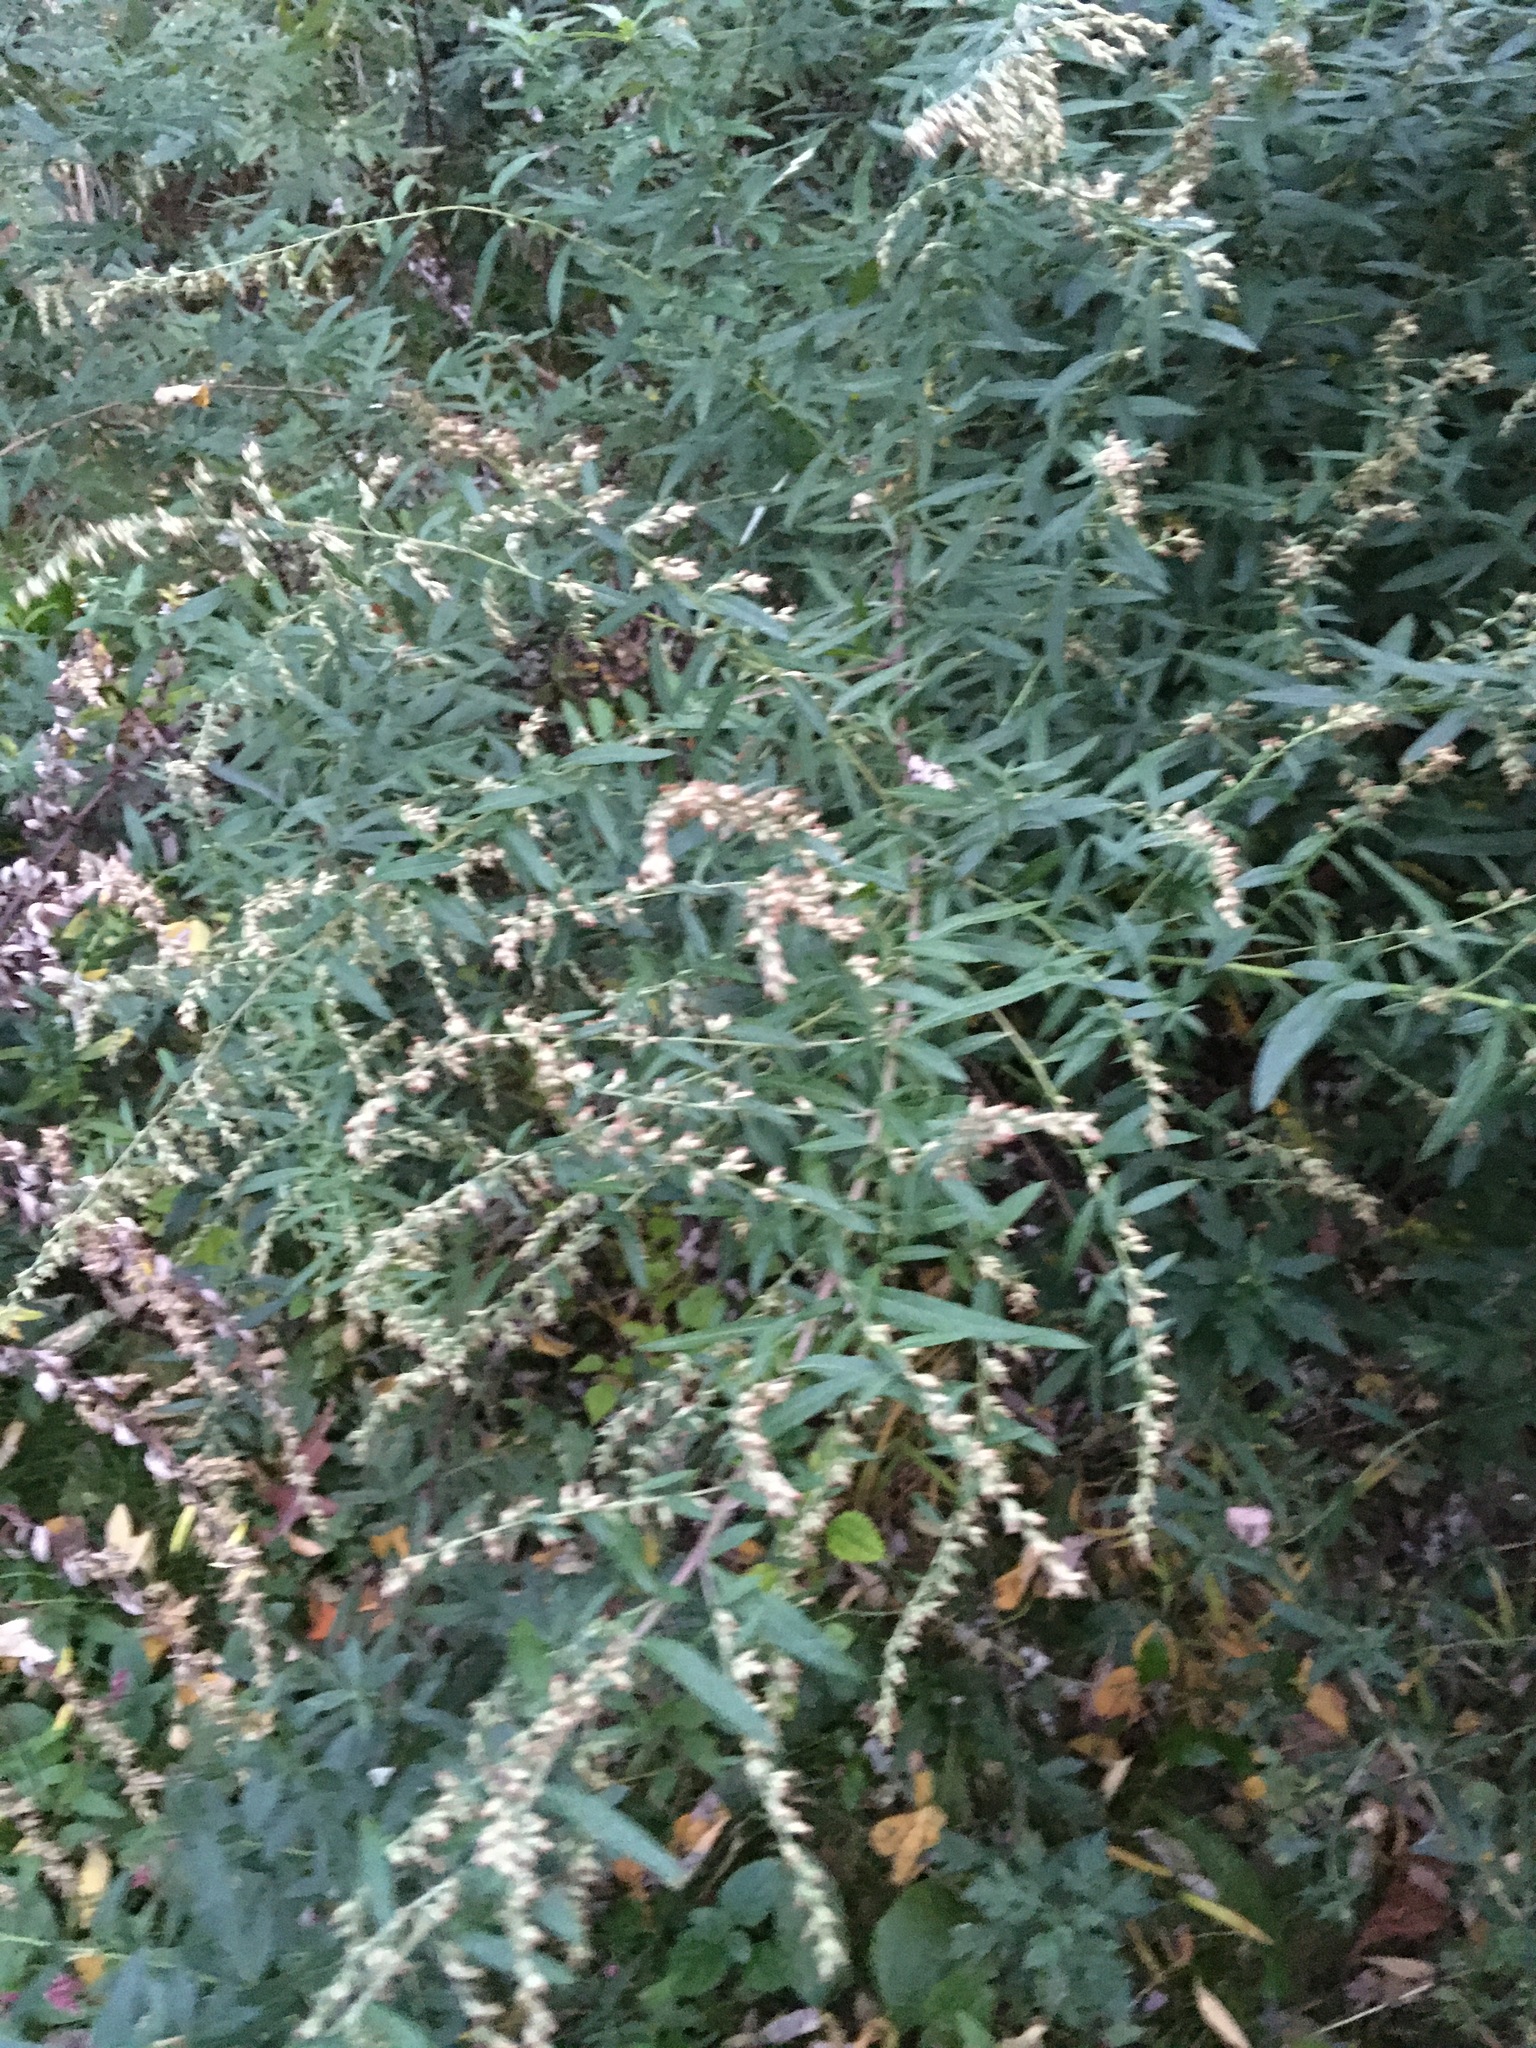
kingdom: Plantae
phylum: Tracheophyta
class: Magnoliopsida
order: Asterales
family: Asteraceae
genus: Artemisia
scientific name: Artemisia vulgaris
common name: Mugwort
